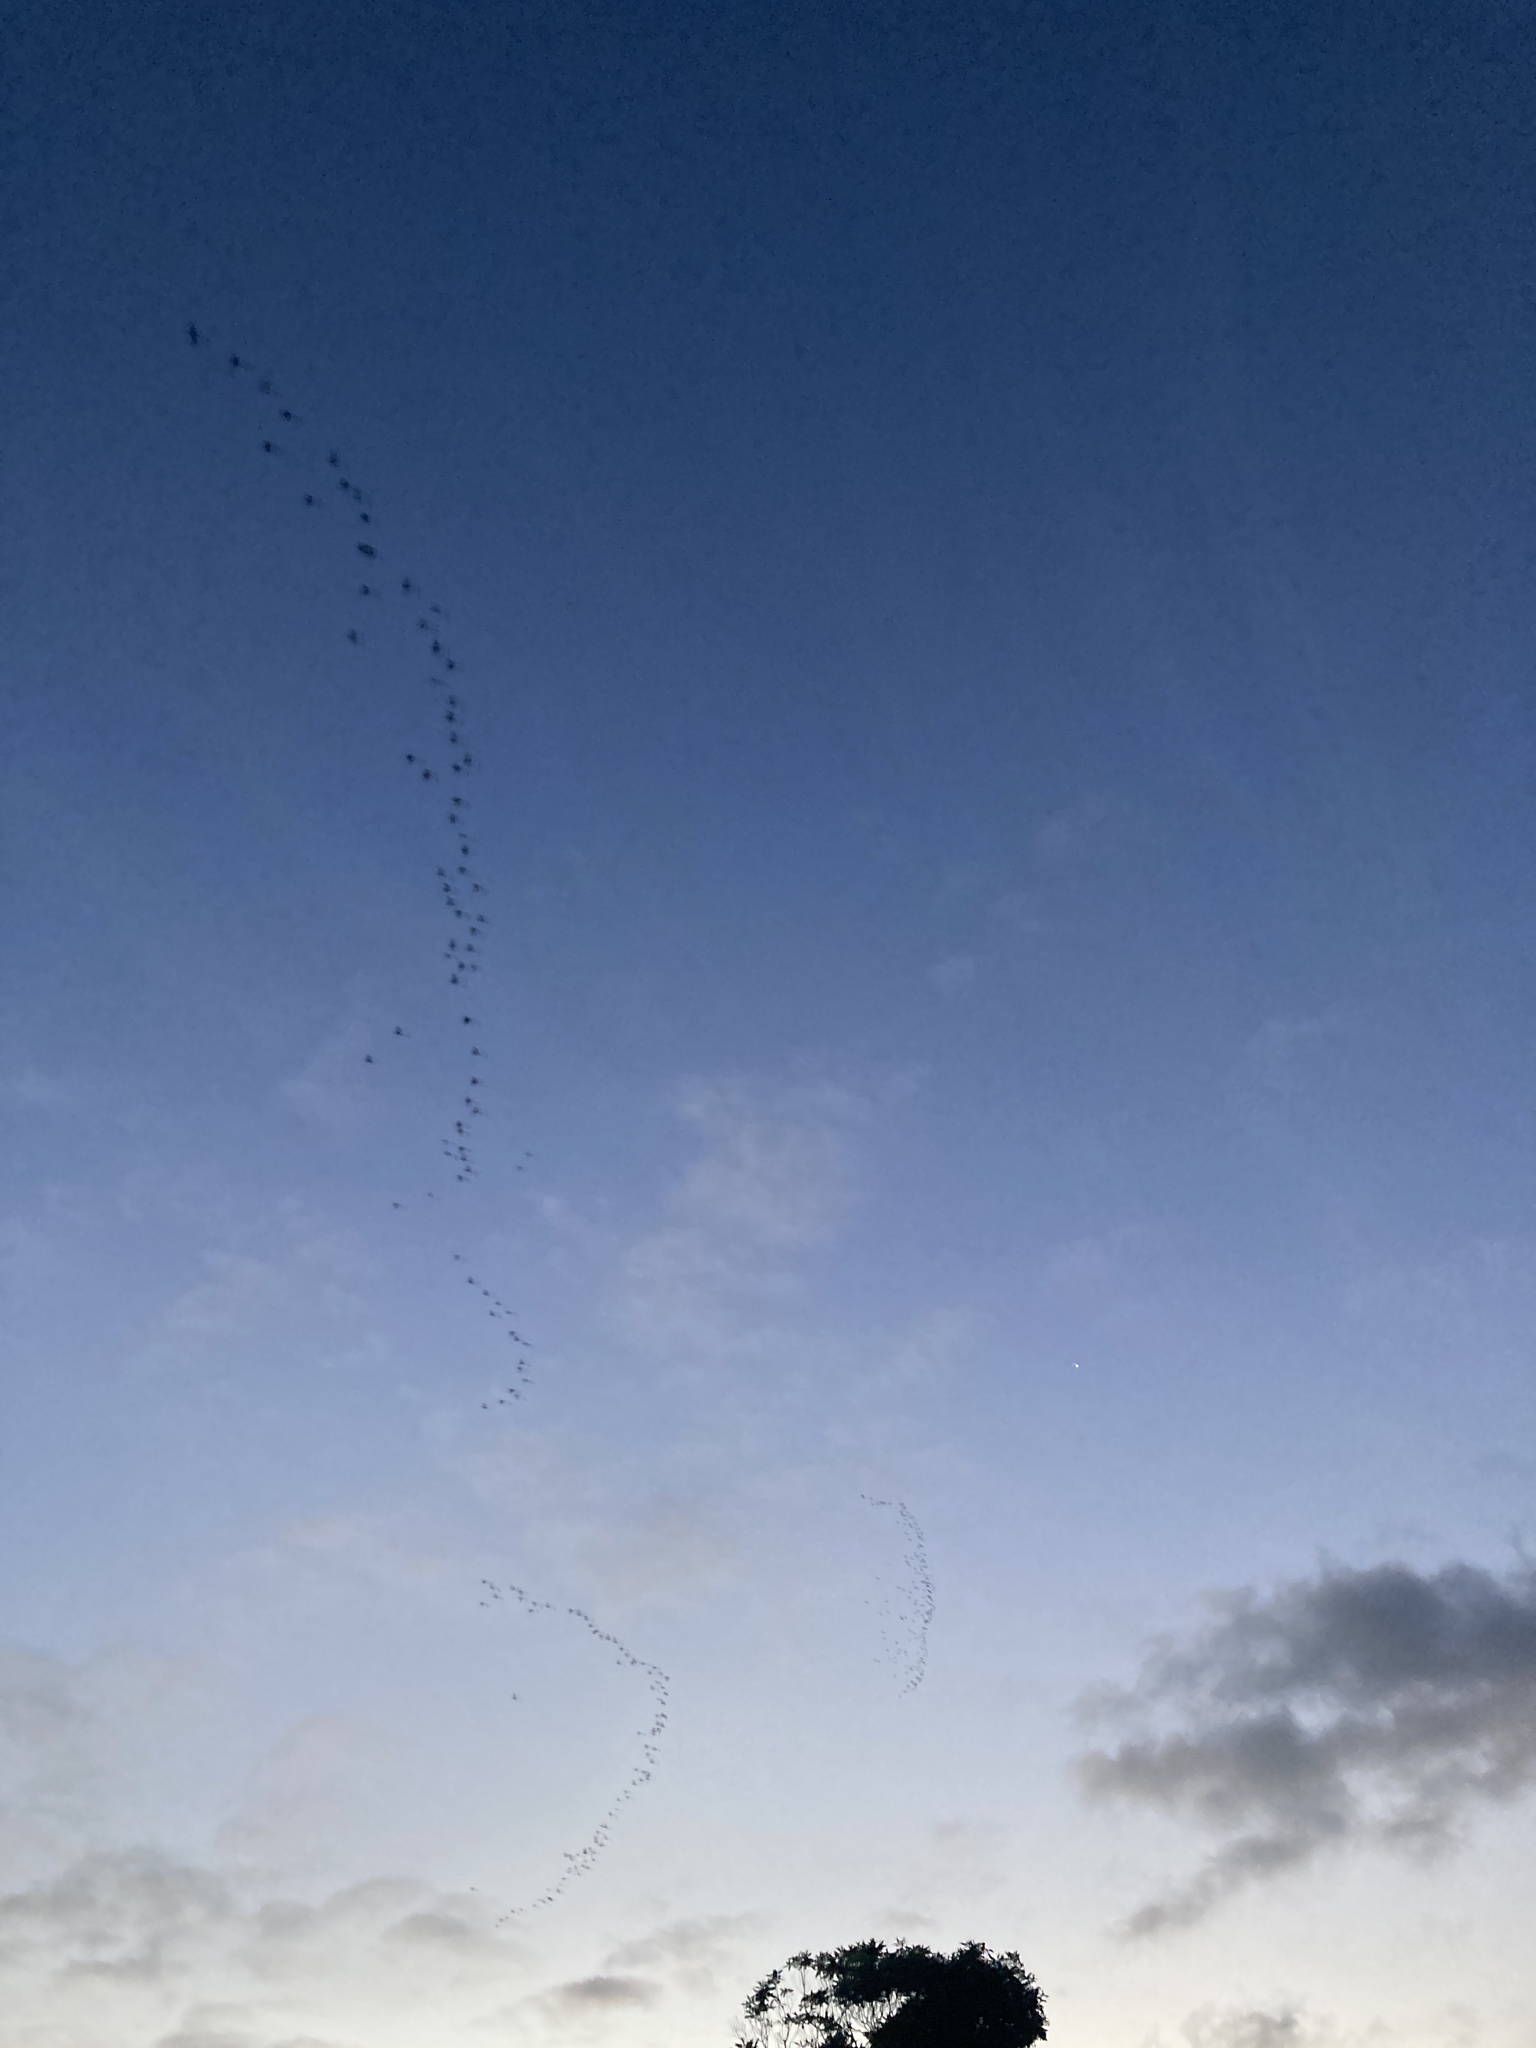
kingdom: Animalia
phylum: Chordata
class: Aves
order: Charadriiformes
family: Scolopacidae
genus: Limosa
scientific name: Limosa lapponica
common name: Bar-tailed godwit
